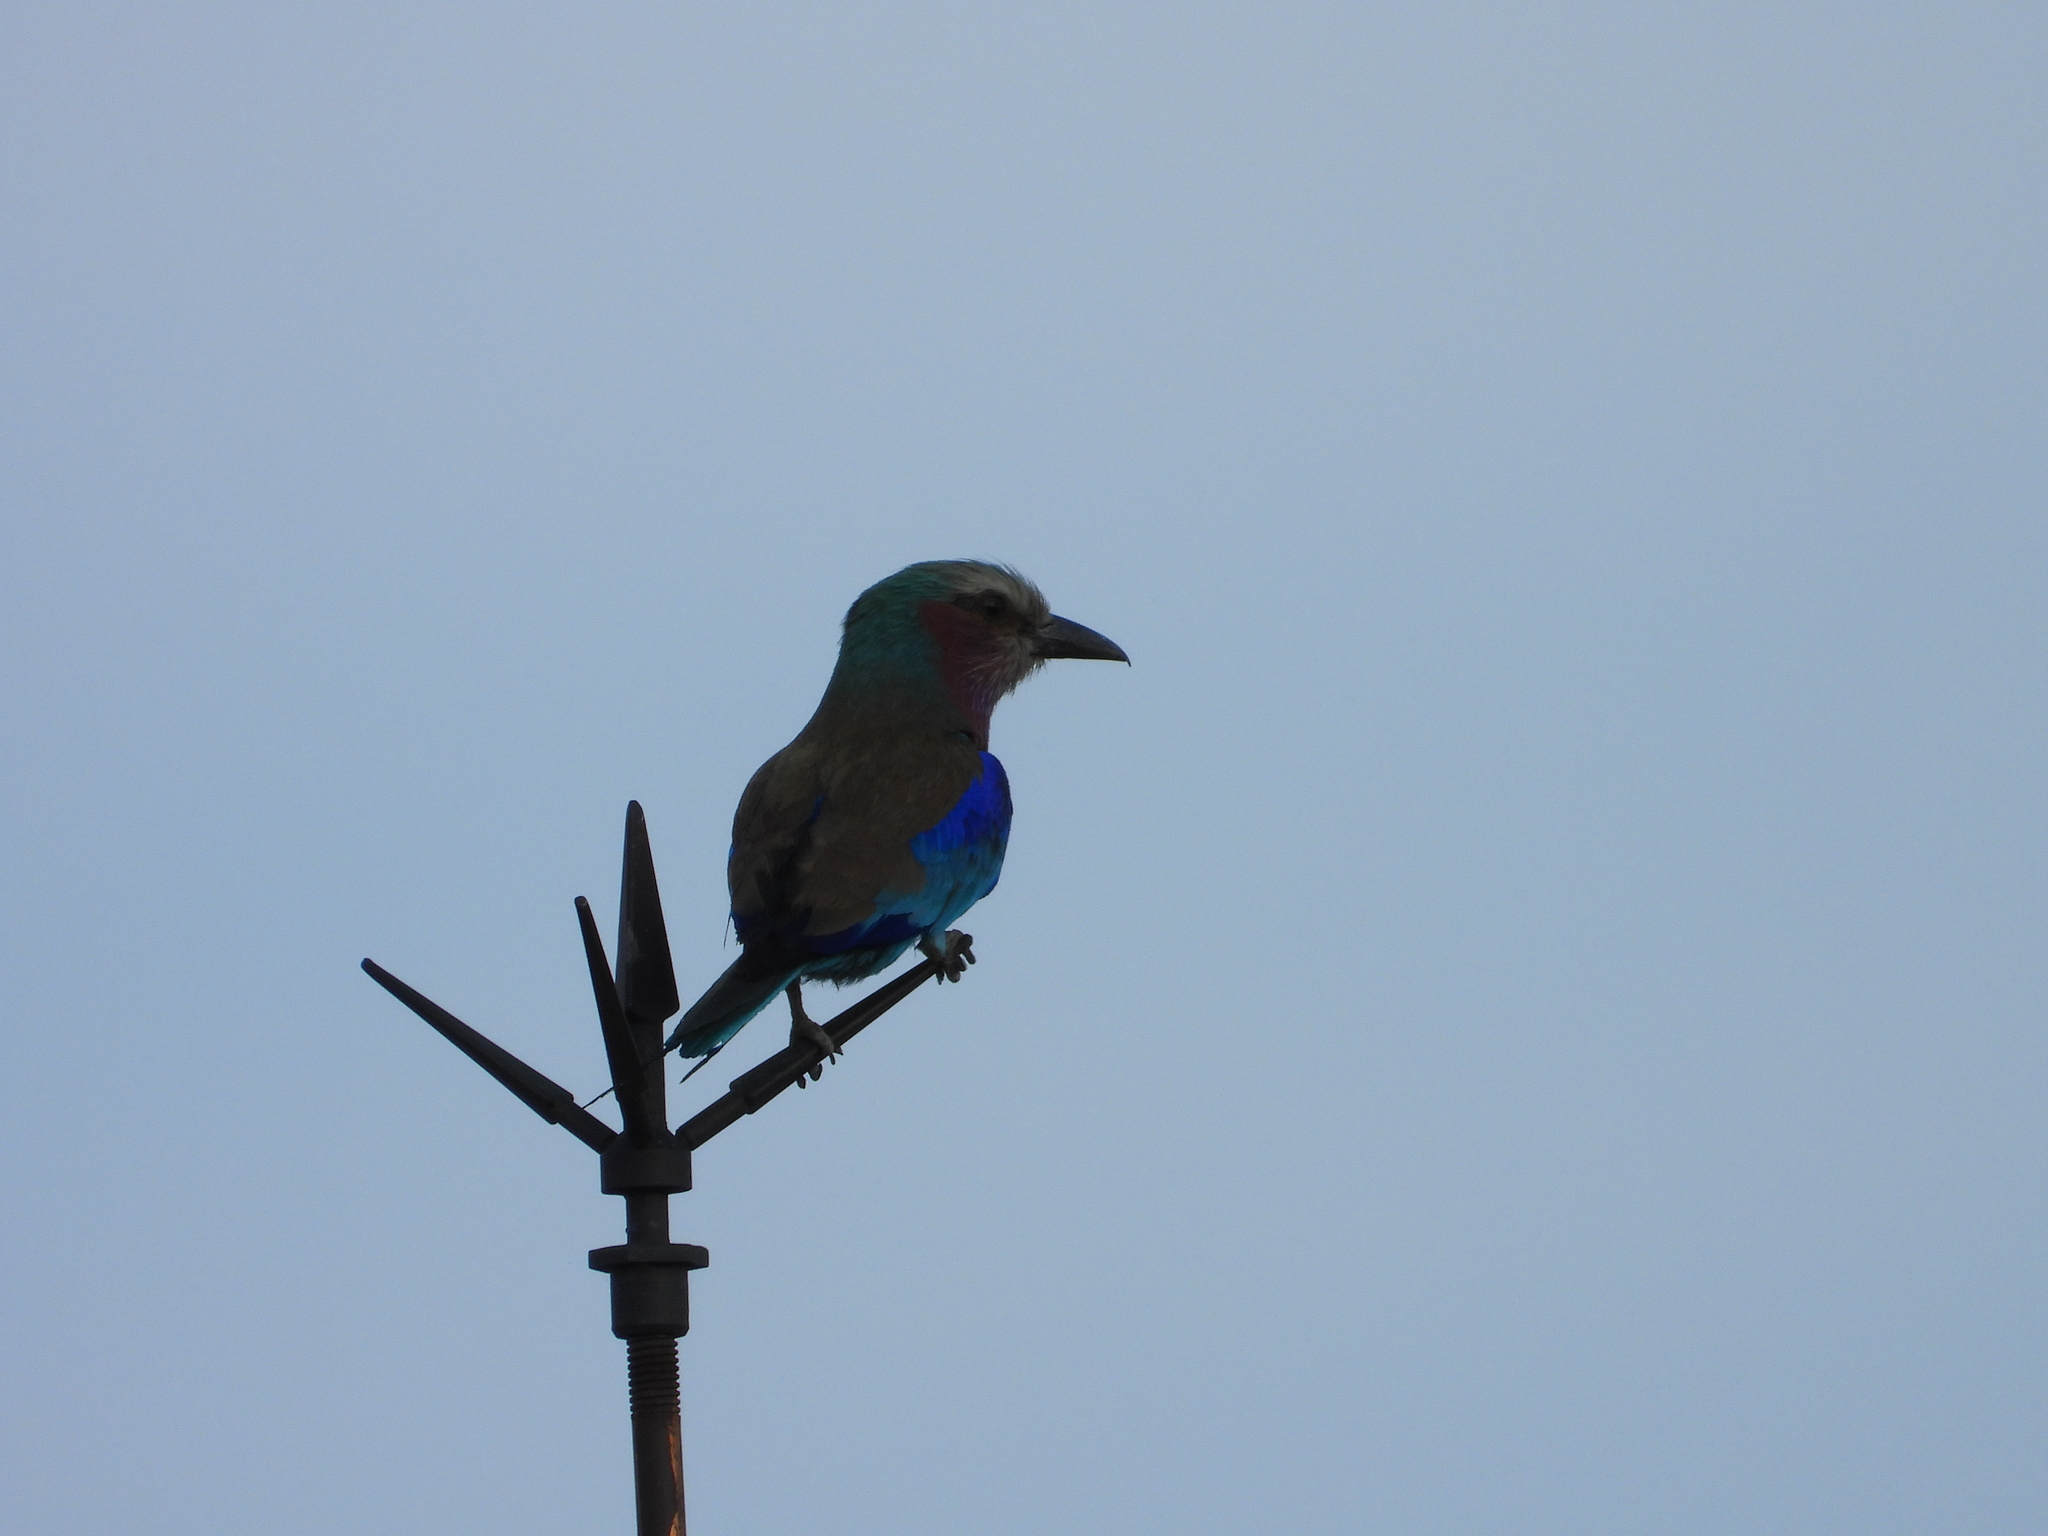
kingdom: Animalia
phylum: Chordata
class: Aves
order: Coraciiformes
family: Coraciidae
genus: Coracias
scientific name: Coracias caudatus
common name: Lilac-breasted roller
